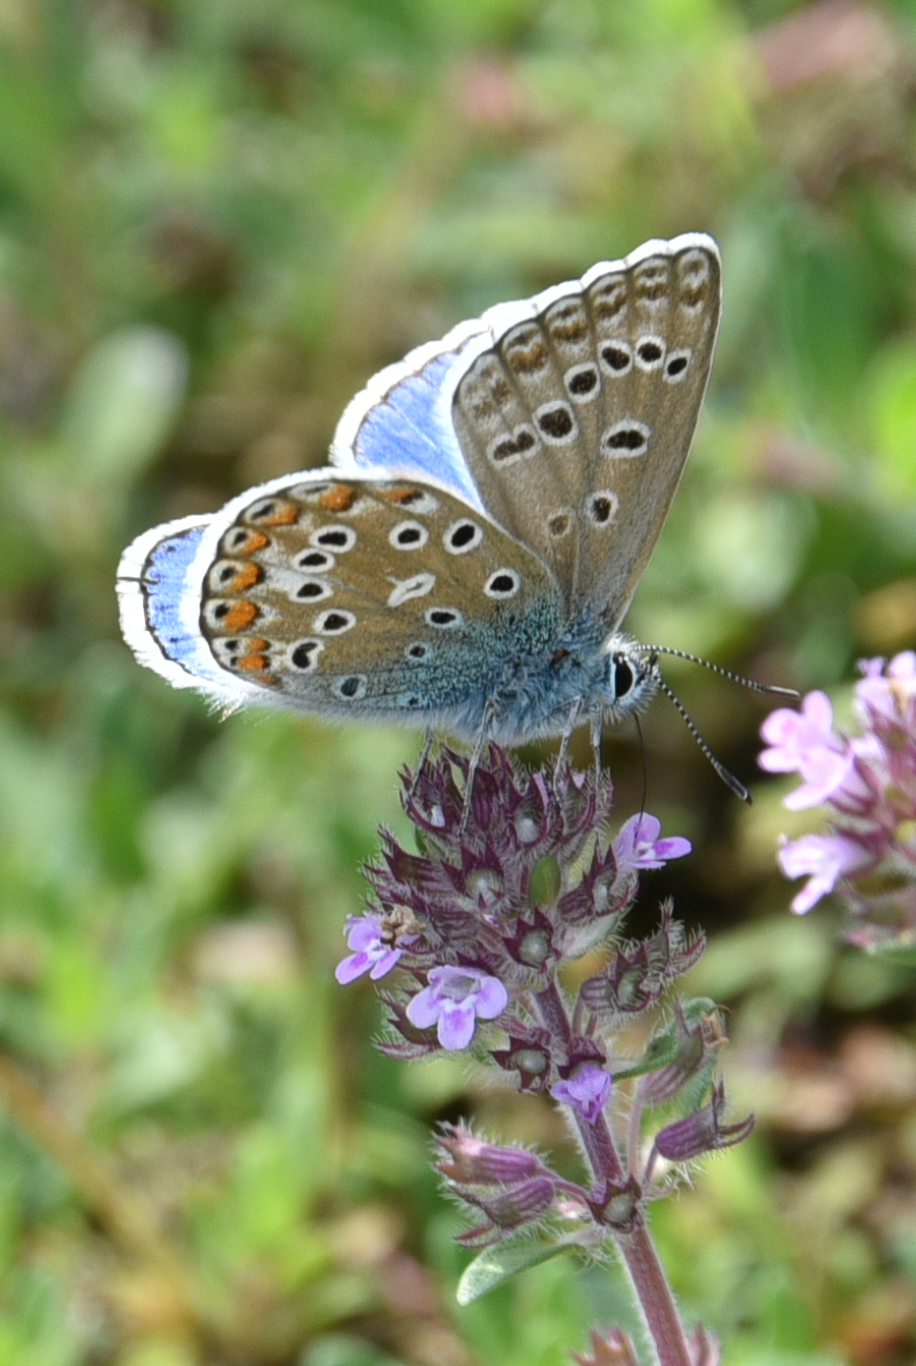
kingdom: Animalia
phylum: Arthropoda
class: Insecta
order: Lepidoptera
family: Lycaenidae
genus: Lysandra
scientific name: Lysandra bellargus
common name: Adonis blue
